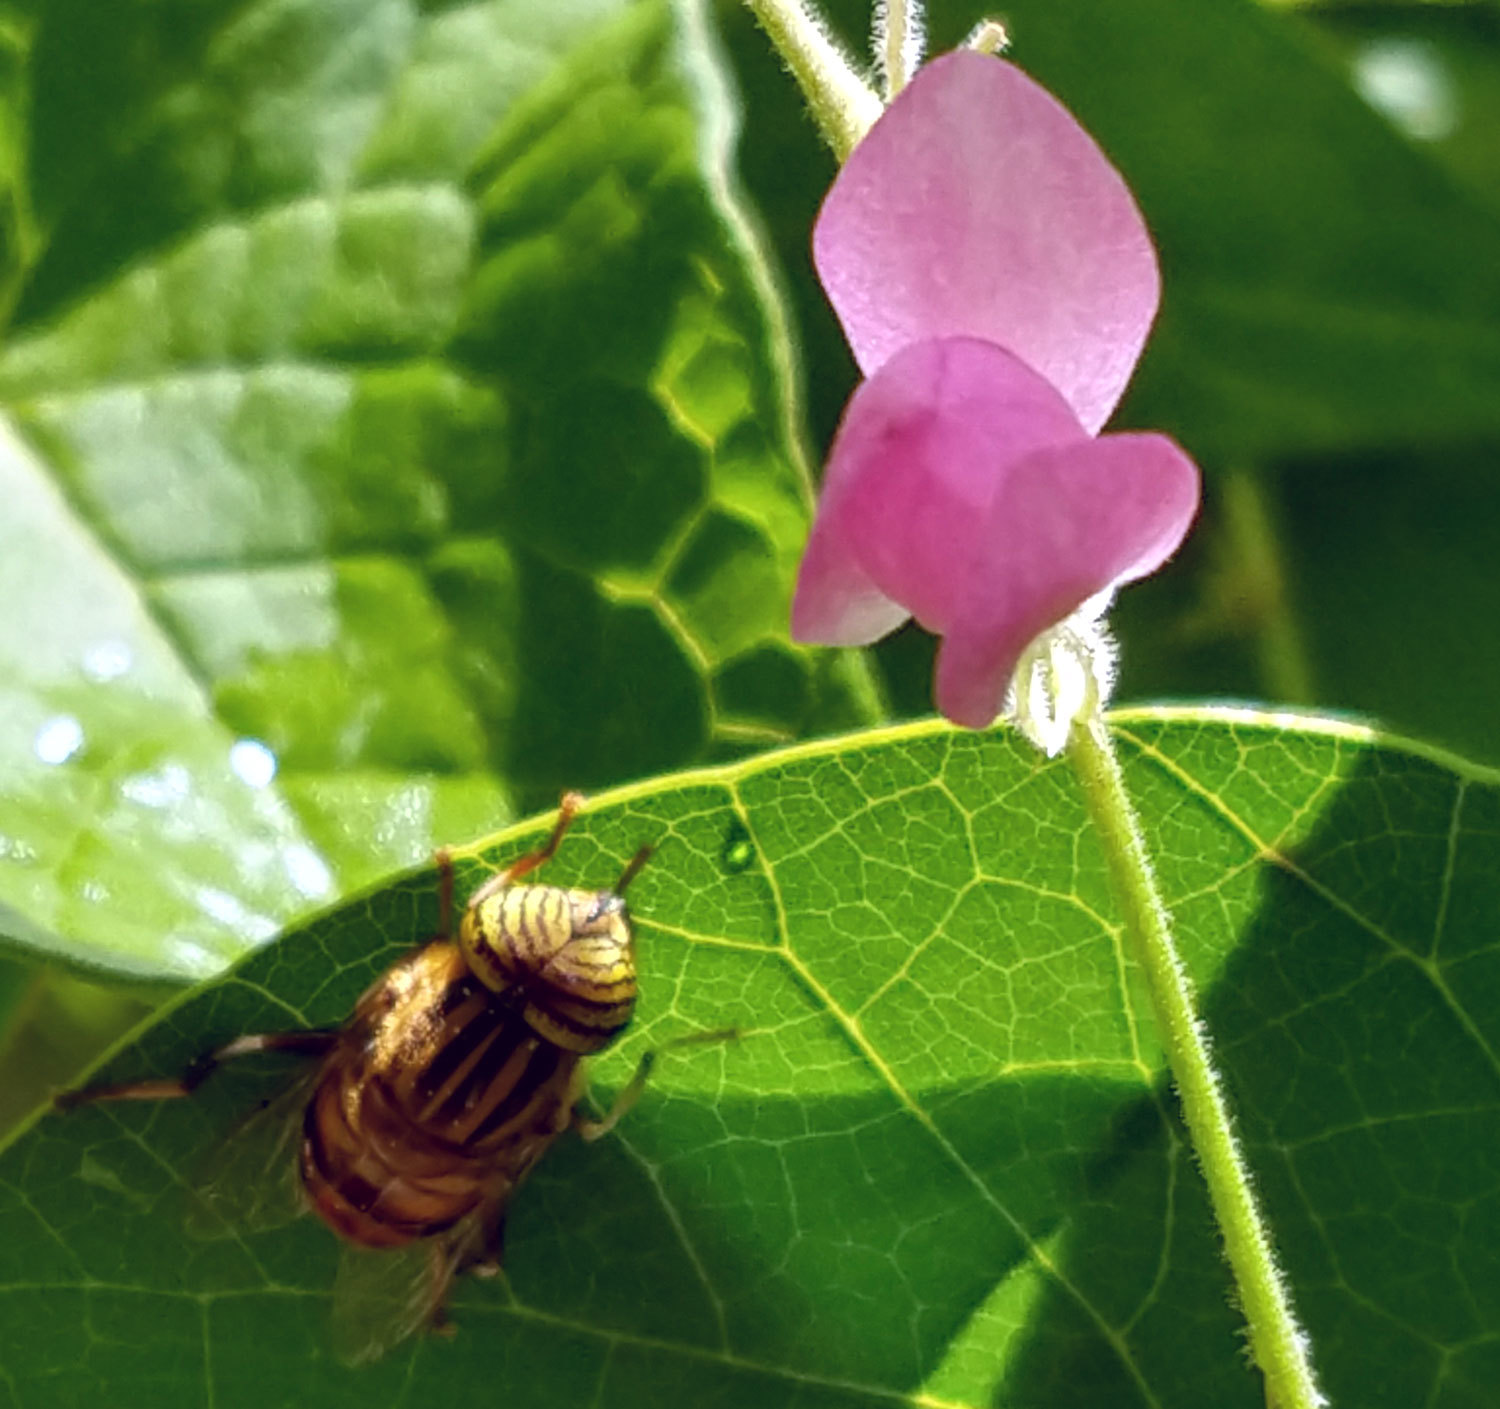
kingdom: Animalia
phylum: Arthropoda
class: Insecta
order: Diptera
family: Syrphidae
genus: Eristalinus
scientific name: Eristalinus taeniops
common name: Syrphid fly
